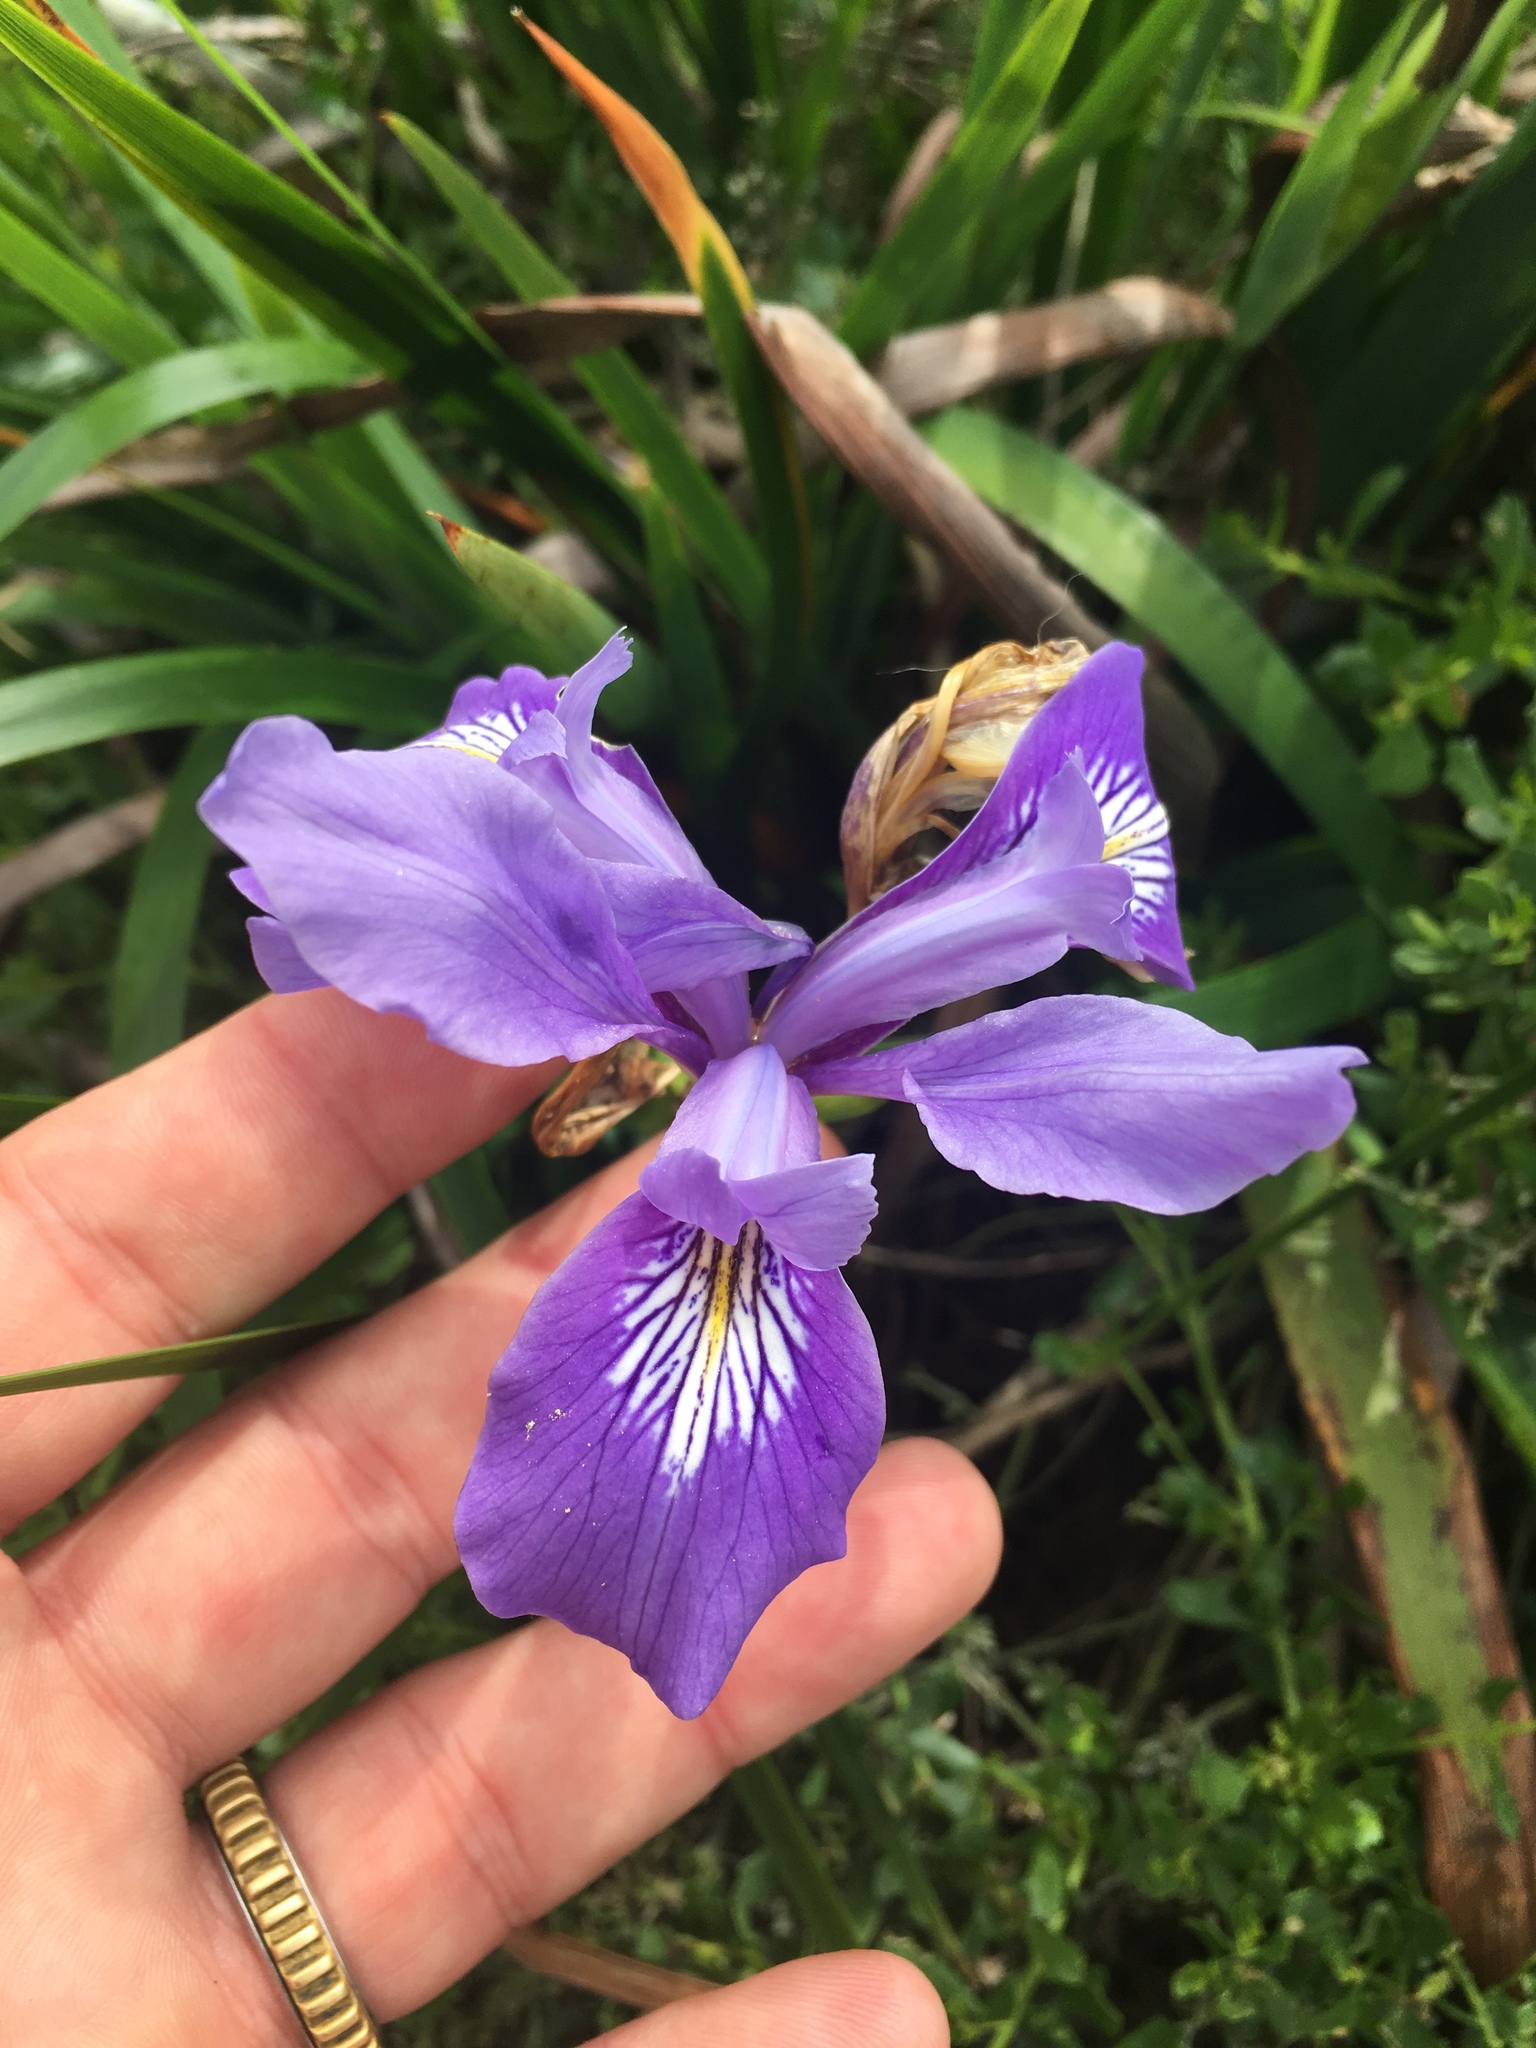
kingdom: Plantae
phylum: Tracheophyta
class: Liliopsida
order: Asparagales
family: Iridaceae
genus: Iris
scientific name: Iris douglasiana
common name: Marin iris
